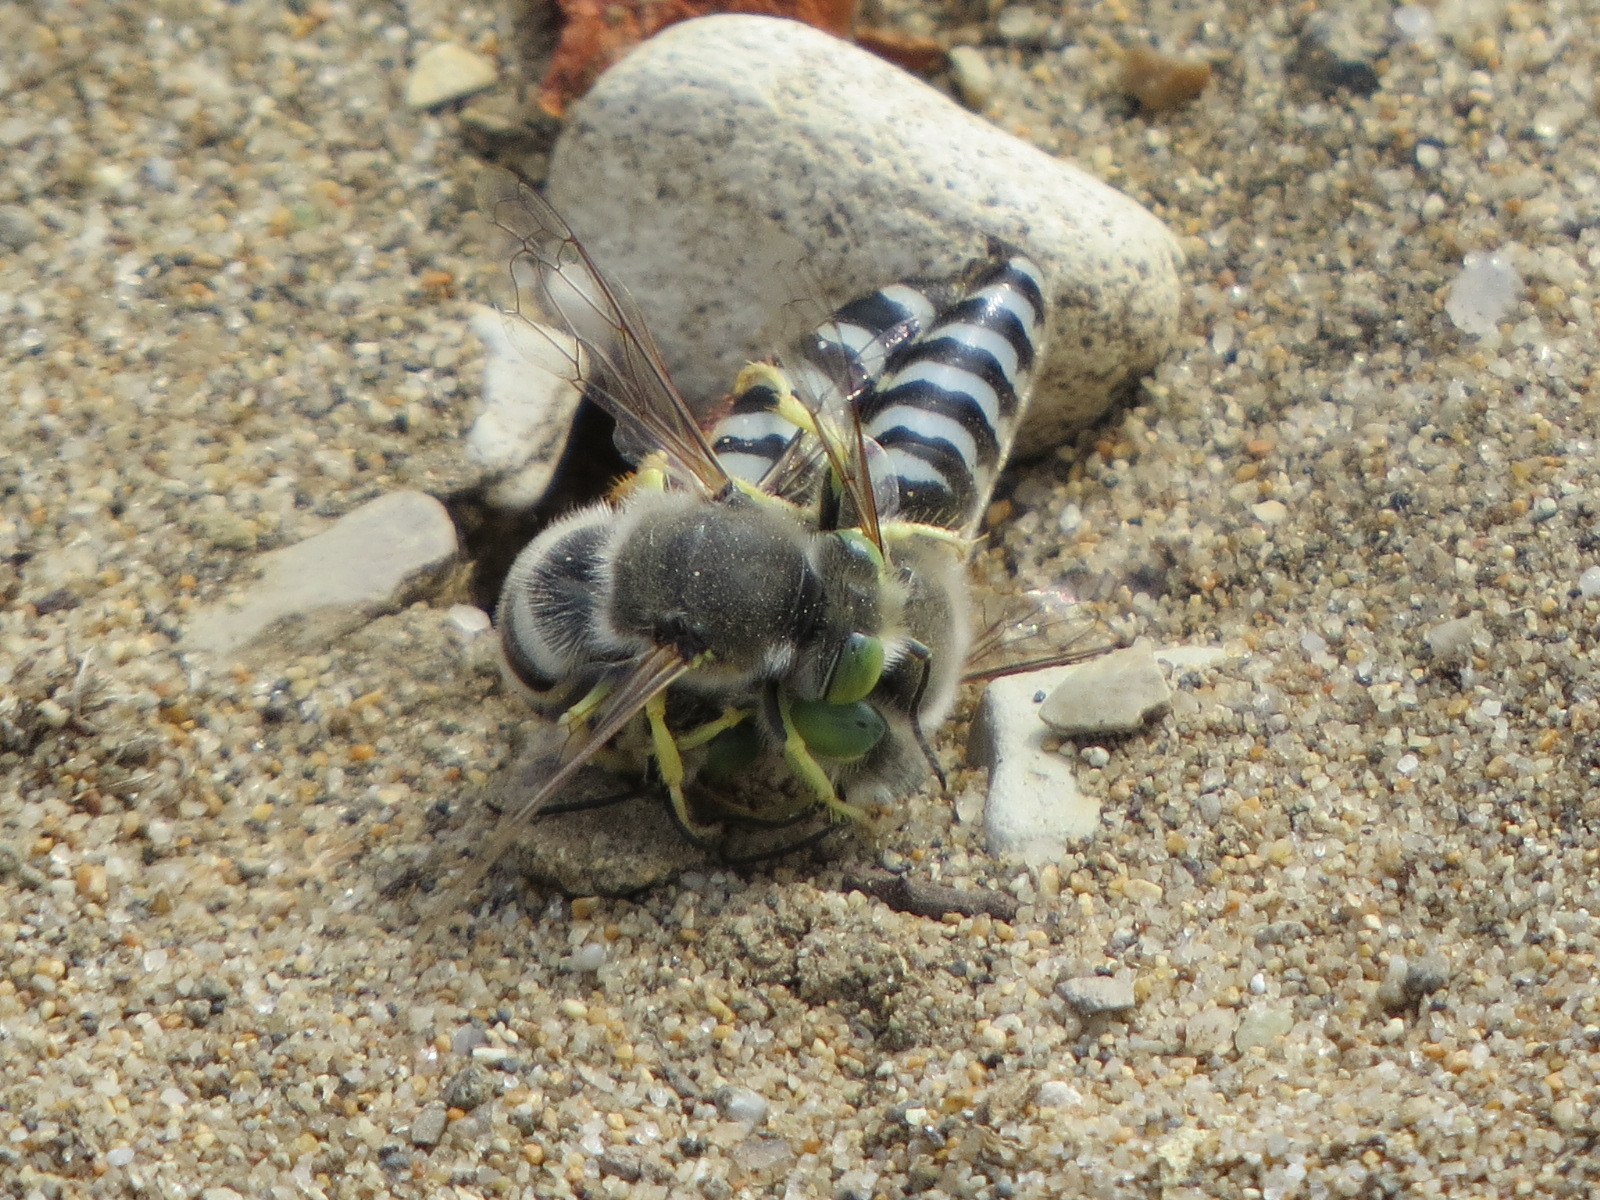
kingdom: Animalia
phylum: Arthropoda
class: Insecta
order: Hymenoptera
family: Crabronidae
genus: Bembix
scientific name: Bembix americana
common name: American sand wasp
